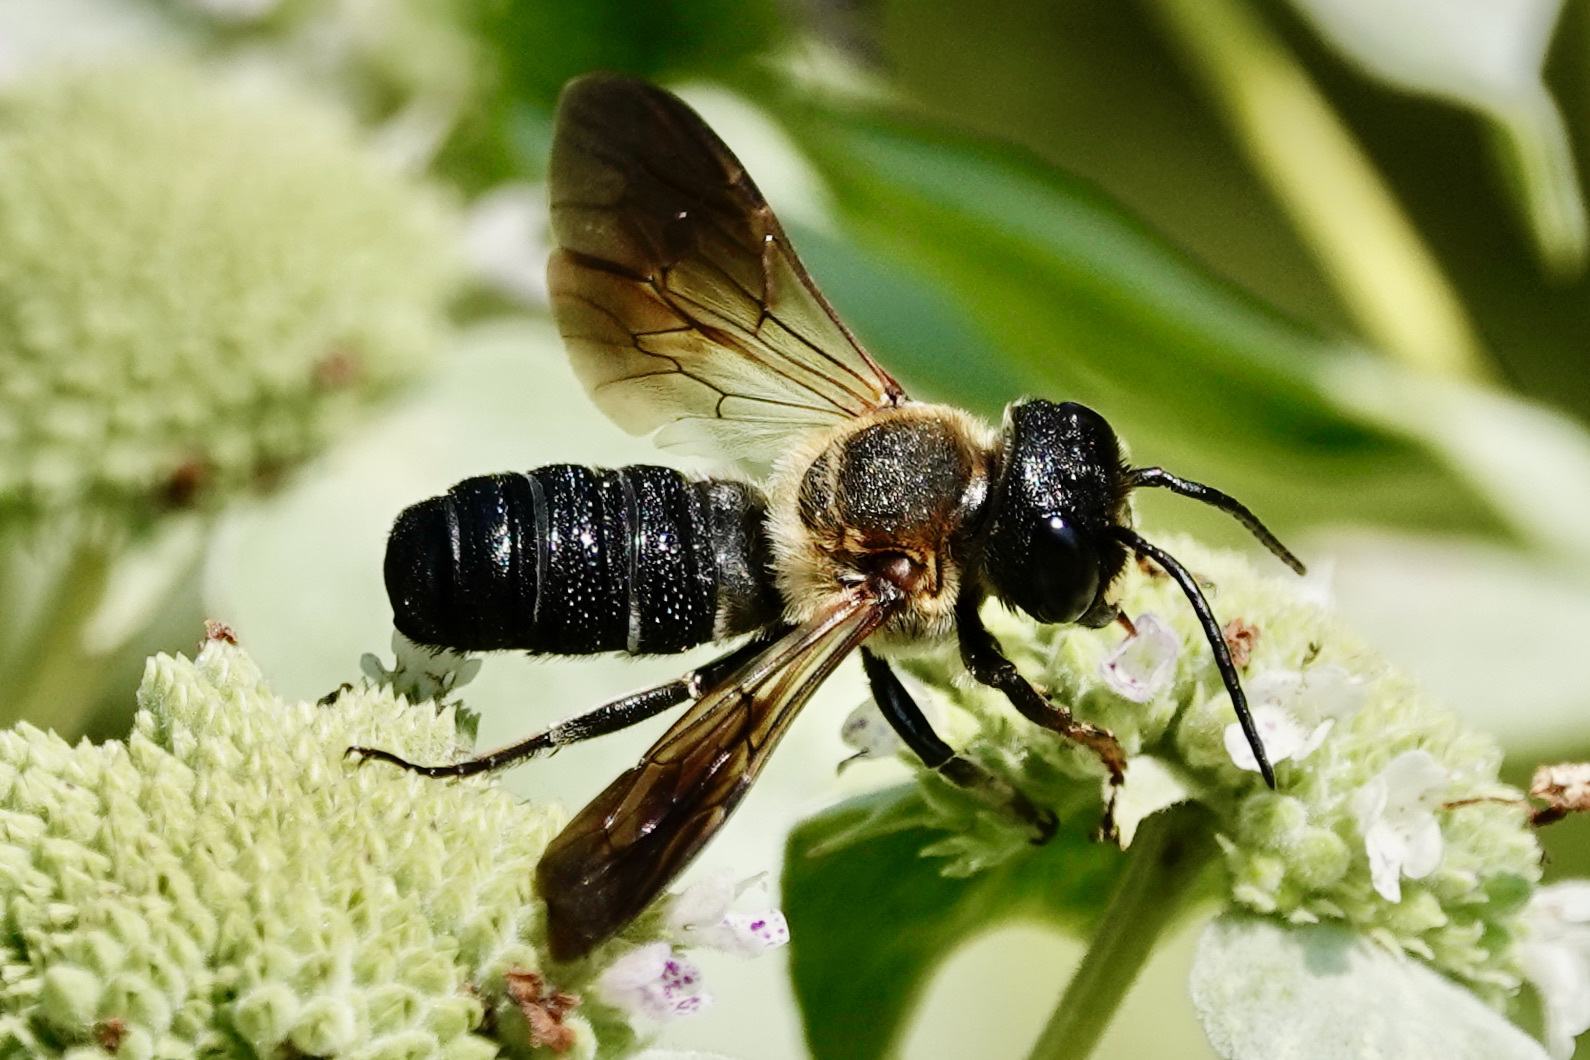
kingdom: Animalia
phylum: Arthropoda
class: Insecta
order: Hymenoptera
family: Megachilidae
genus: Megachile
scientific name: Megachile sculpturalis
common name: Sculptured resin bee
